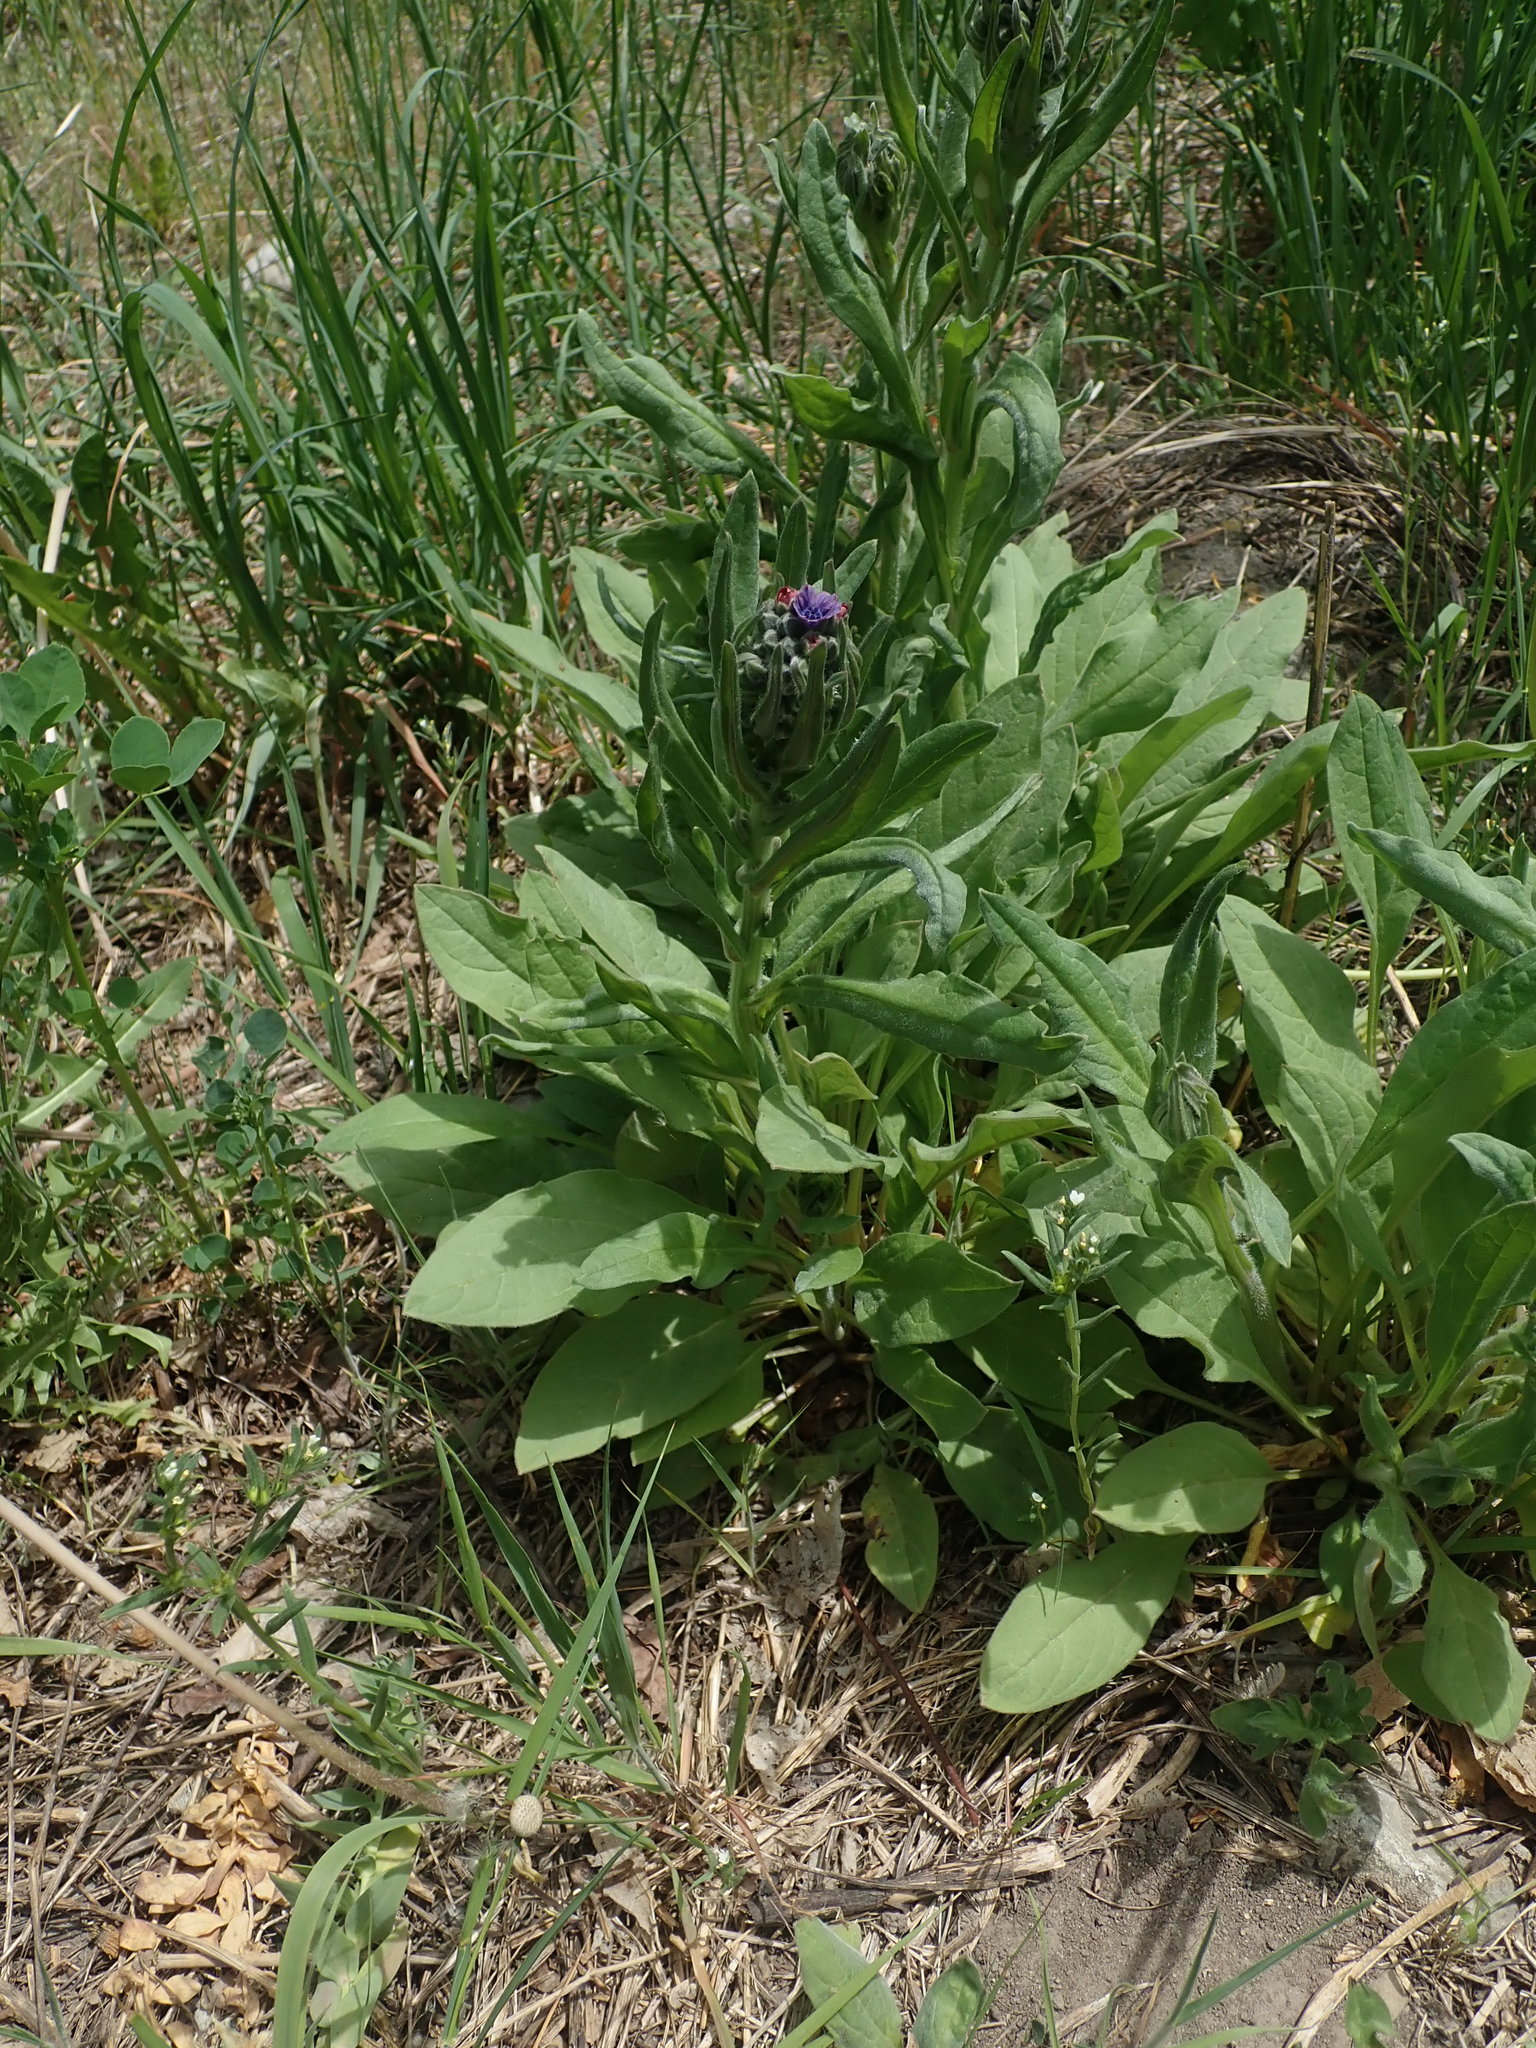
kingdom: Plantae
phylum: Tracheophyta
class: Magnoliopsida
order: Boraginales
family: Boraginaceae
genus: Cynoglossum
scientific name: Cynoglossum officinale
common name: Hound's-tongue
